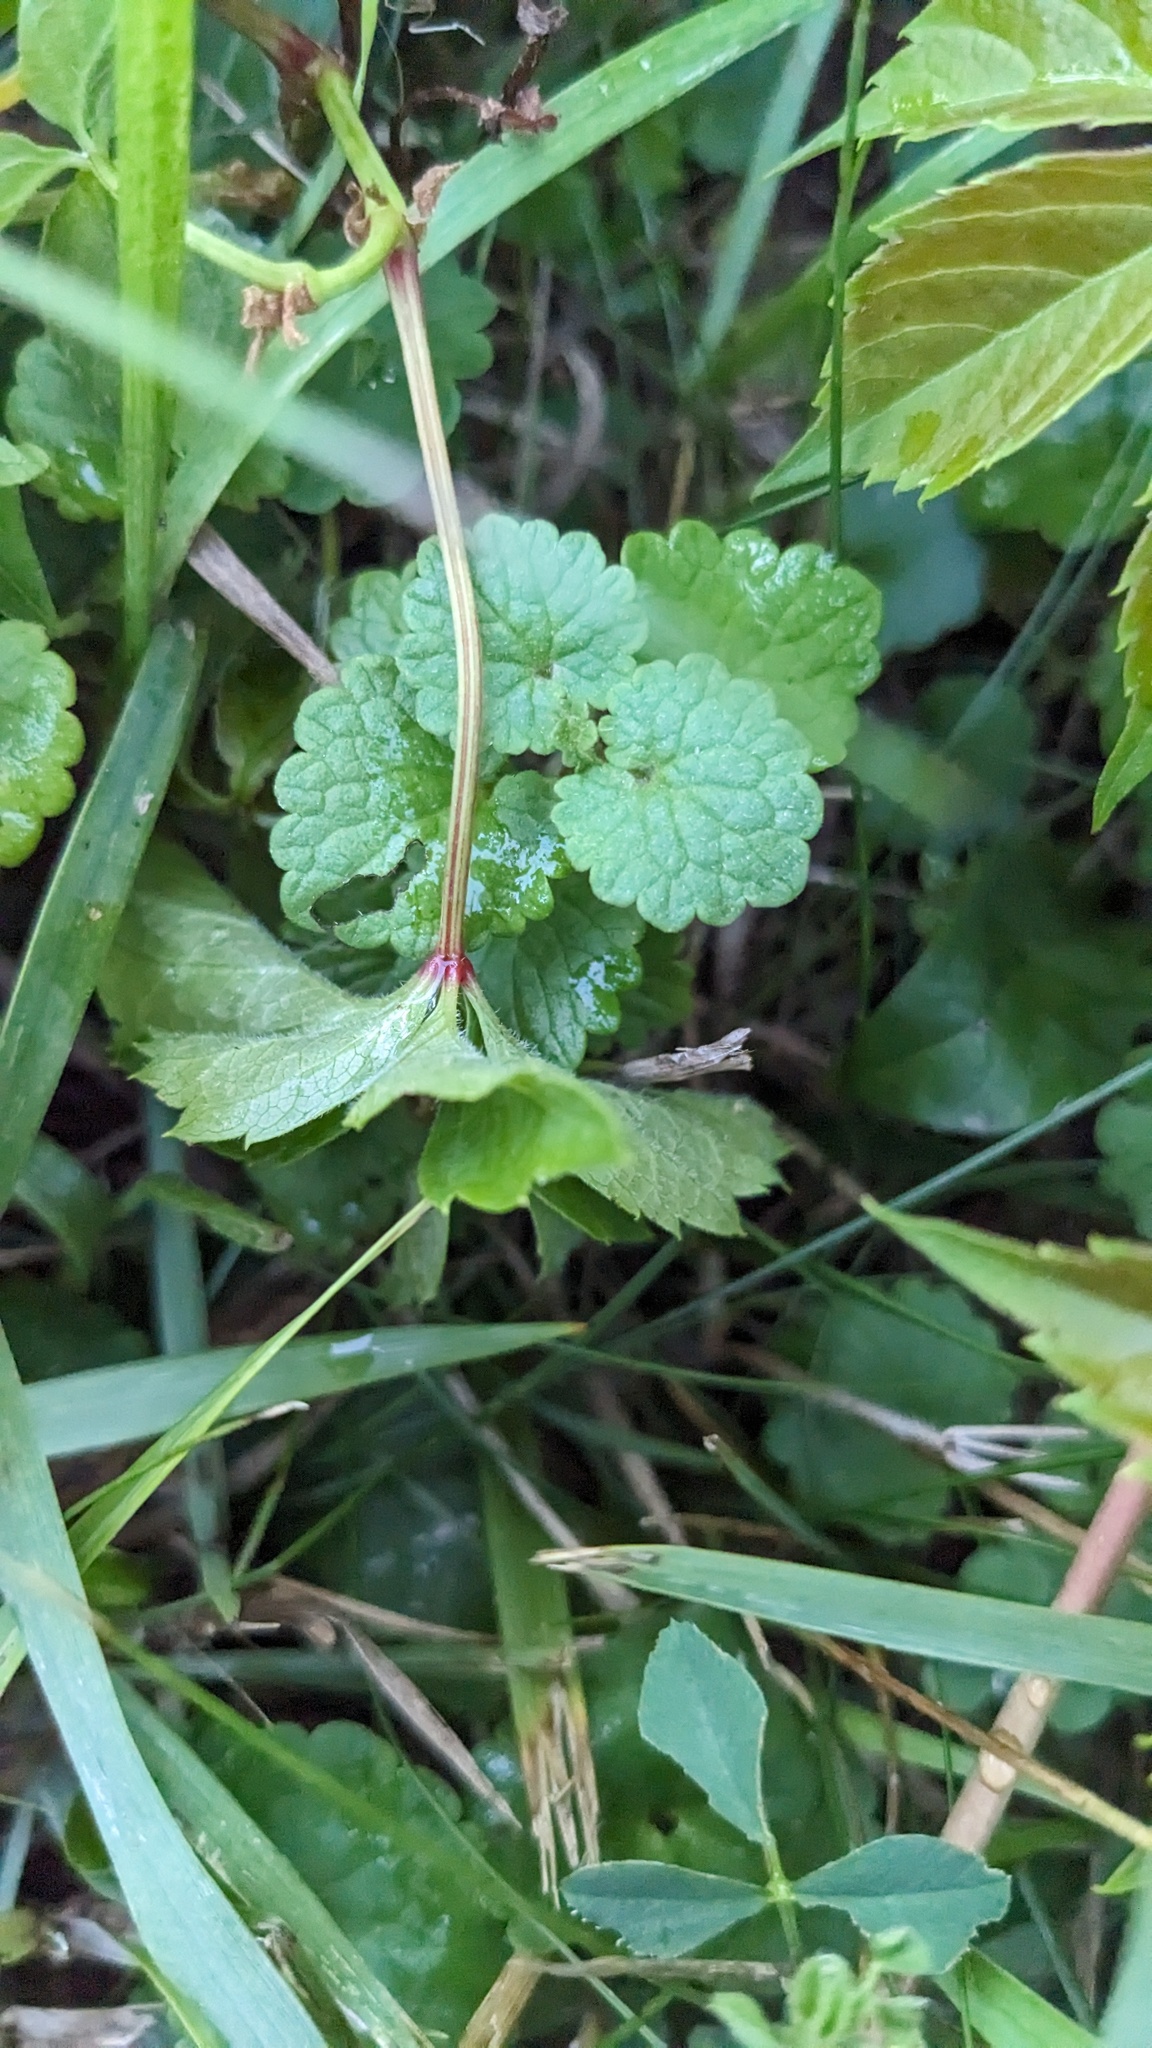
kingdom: Plantae
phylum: Tracheophyta
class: Magnoliopsida
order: Lamiales
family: Lamiaceae
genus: Glechoma
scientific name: Glechoma hederacea
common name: Ground ivy
